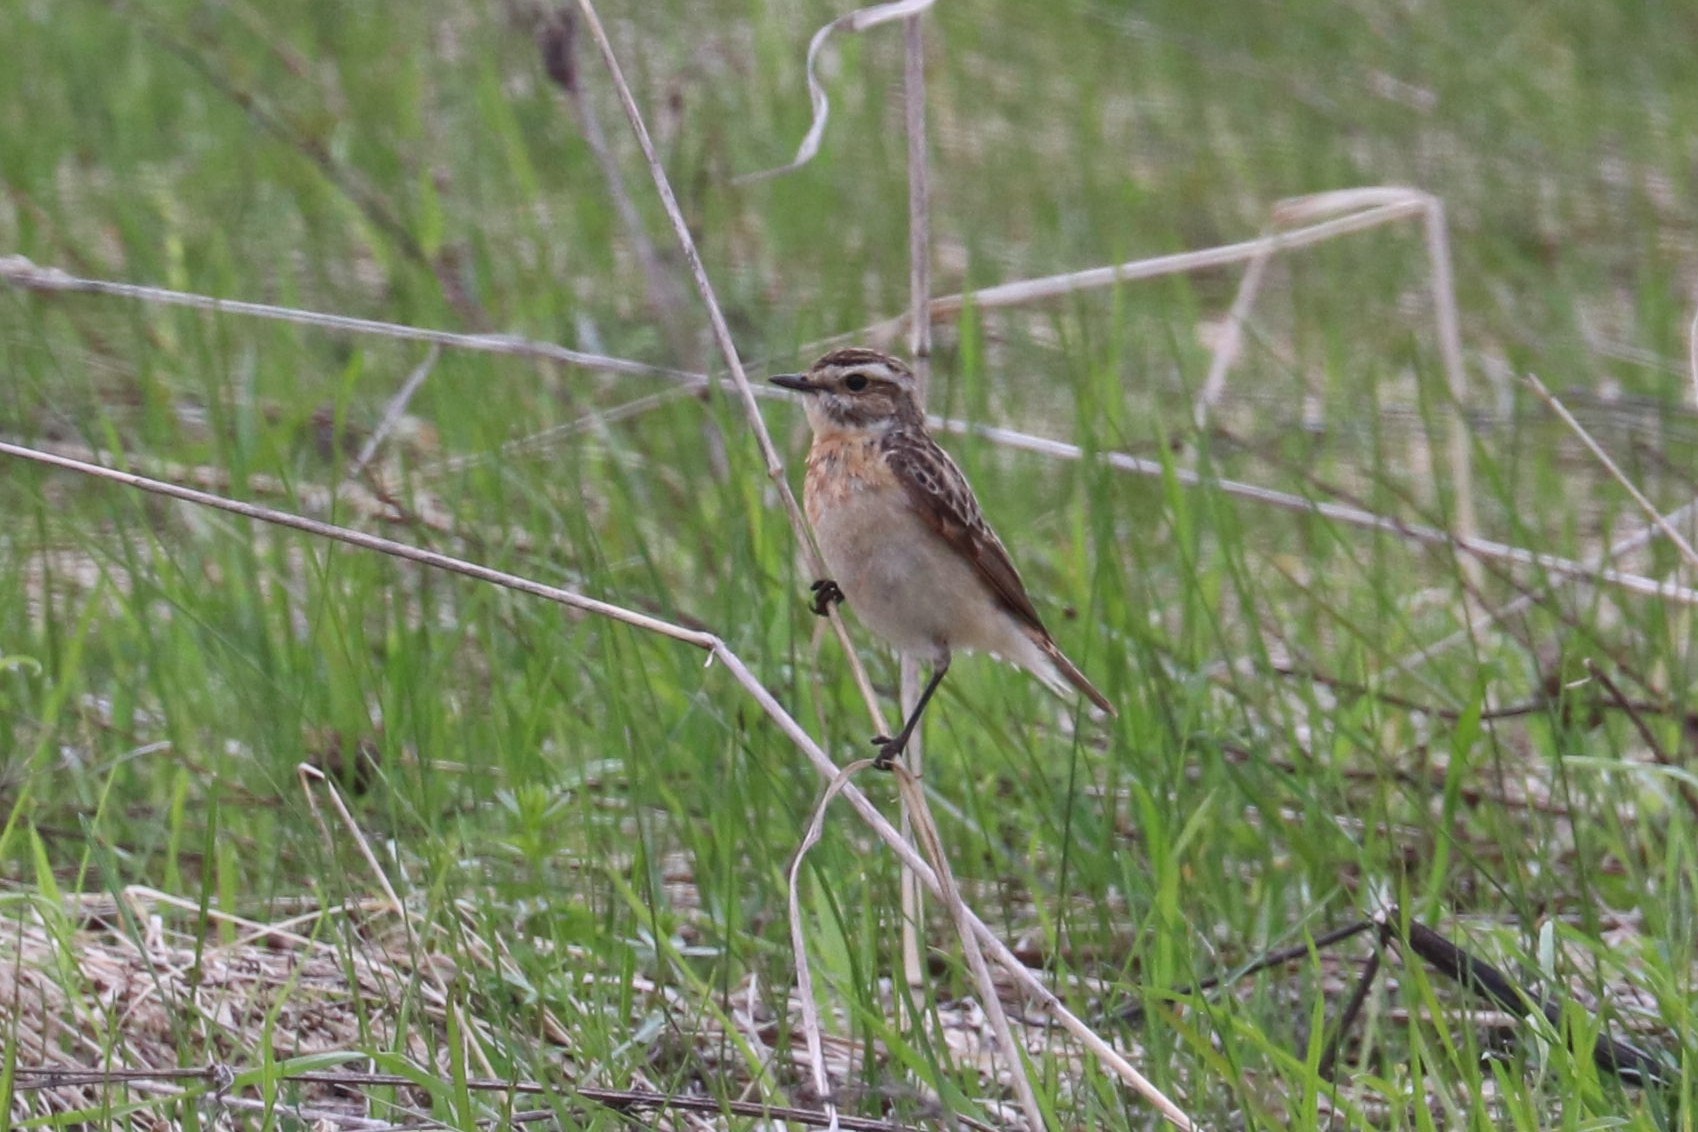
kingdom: Animalia
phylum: Chordata
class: Aves
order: Passeriformes
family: Muscicapidae
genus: Saxicola
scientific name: Saxicola rubetra
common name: Whinchat
